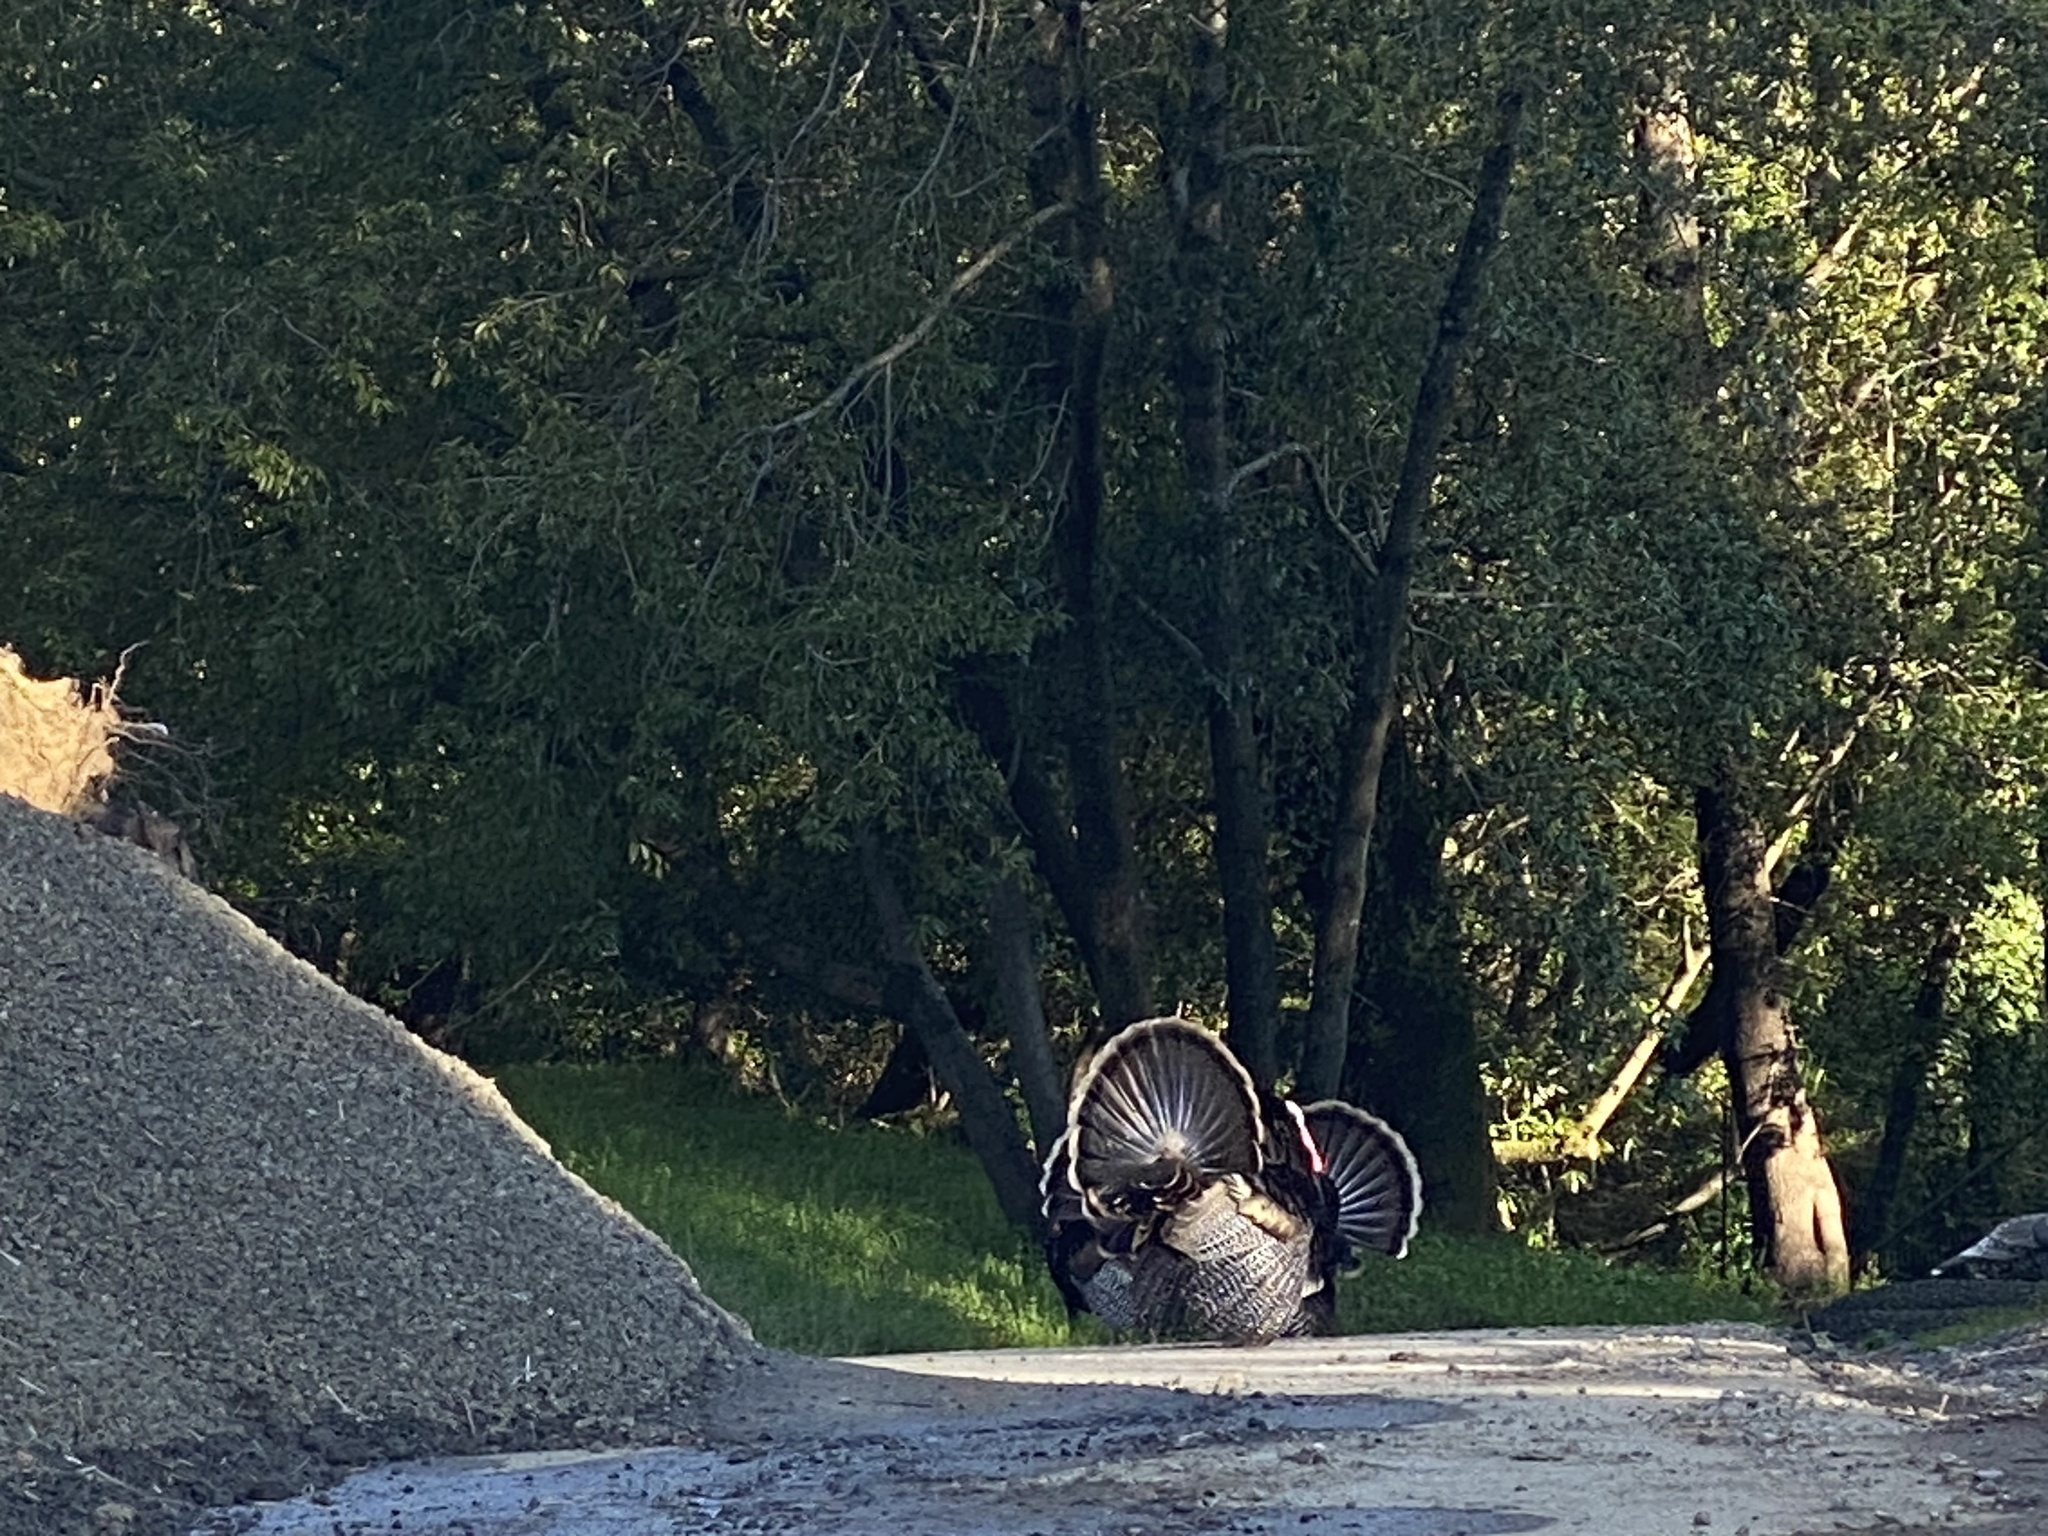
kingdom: Animalia
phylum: Chordata
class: Aves
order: Galliformes
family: Phasianidae
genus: Meleagris
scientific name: Meleagris gallopavo
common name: Wild turkey
